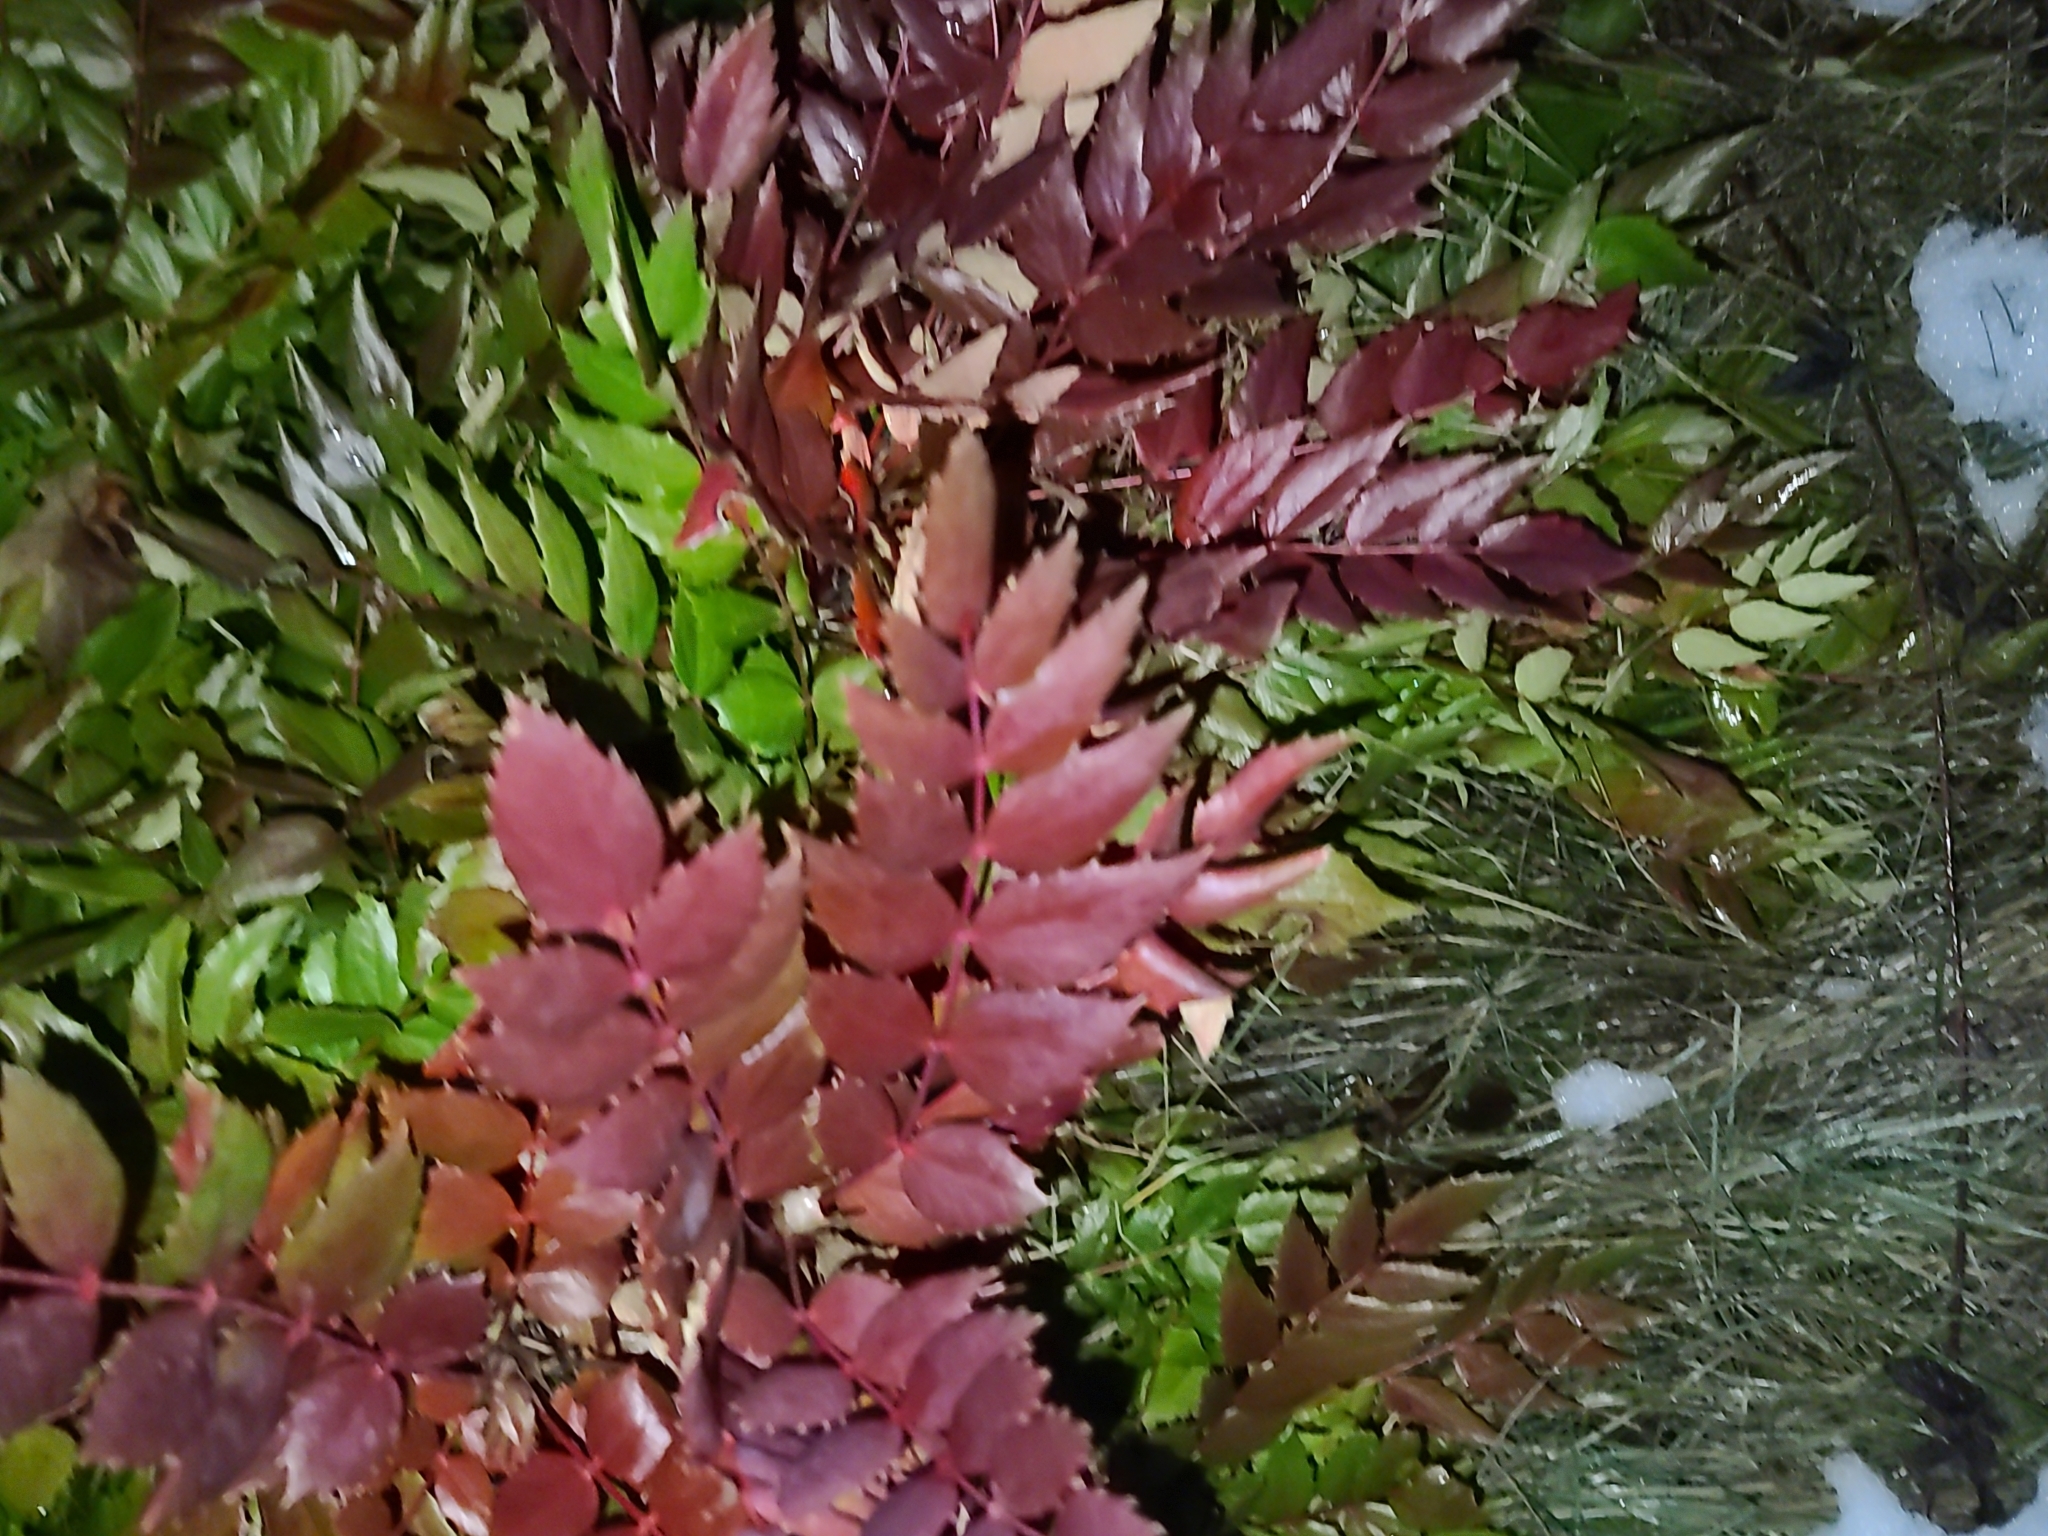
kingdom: Plantae
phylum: Tracheophyta
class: Magnoliopsida
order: Ranunculales
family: Berberidaceae
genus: Mahonia
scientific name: Mahonia nervosa
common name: Cascade oregon-grape
